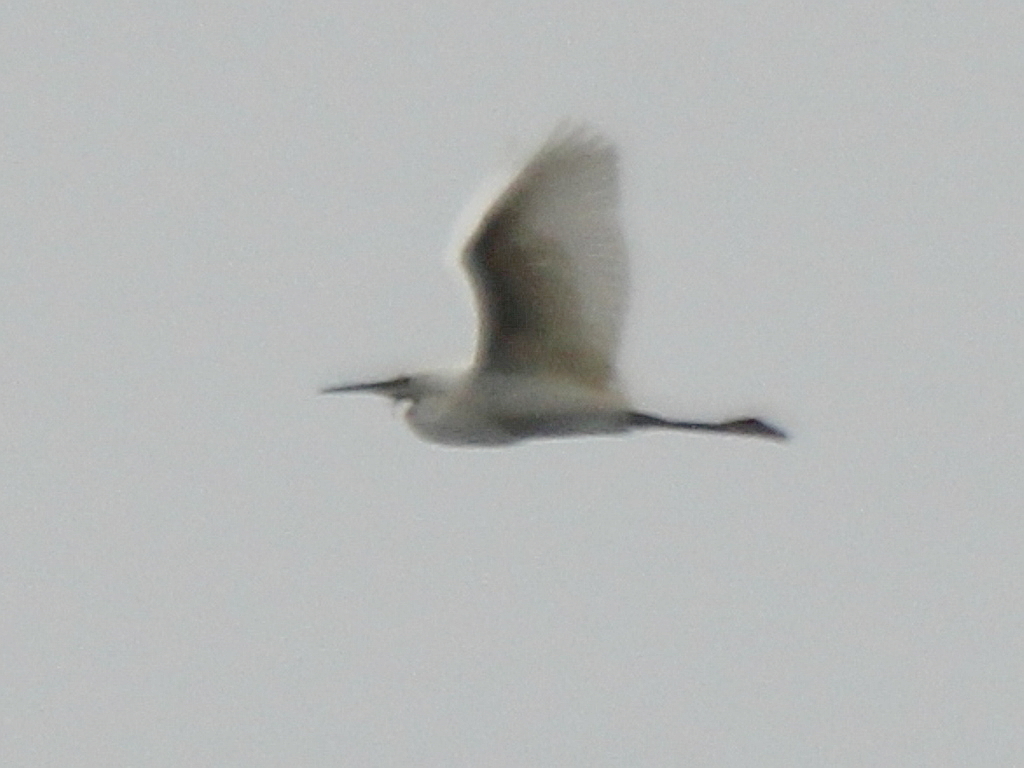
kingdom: Animalia
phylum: Chordata
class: Aves
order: Pelecaniformes
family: Ardeidae
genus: Egretta
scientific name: Egretta garzetta
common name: Little egret
